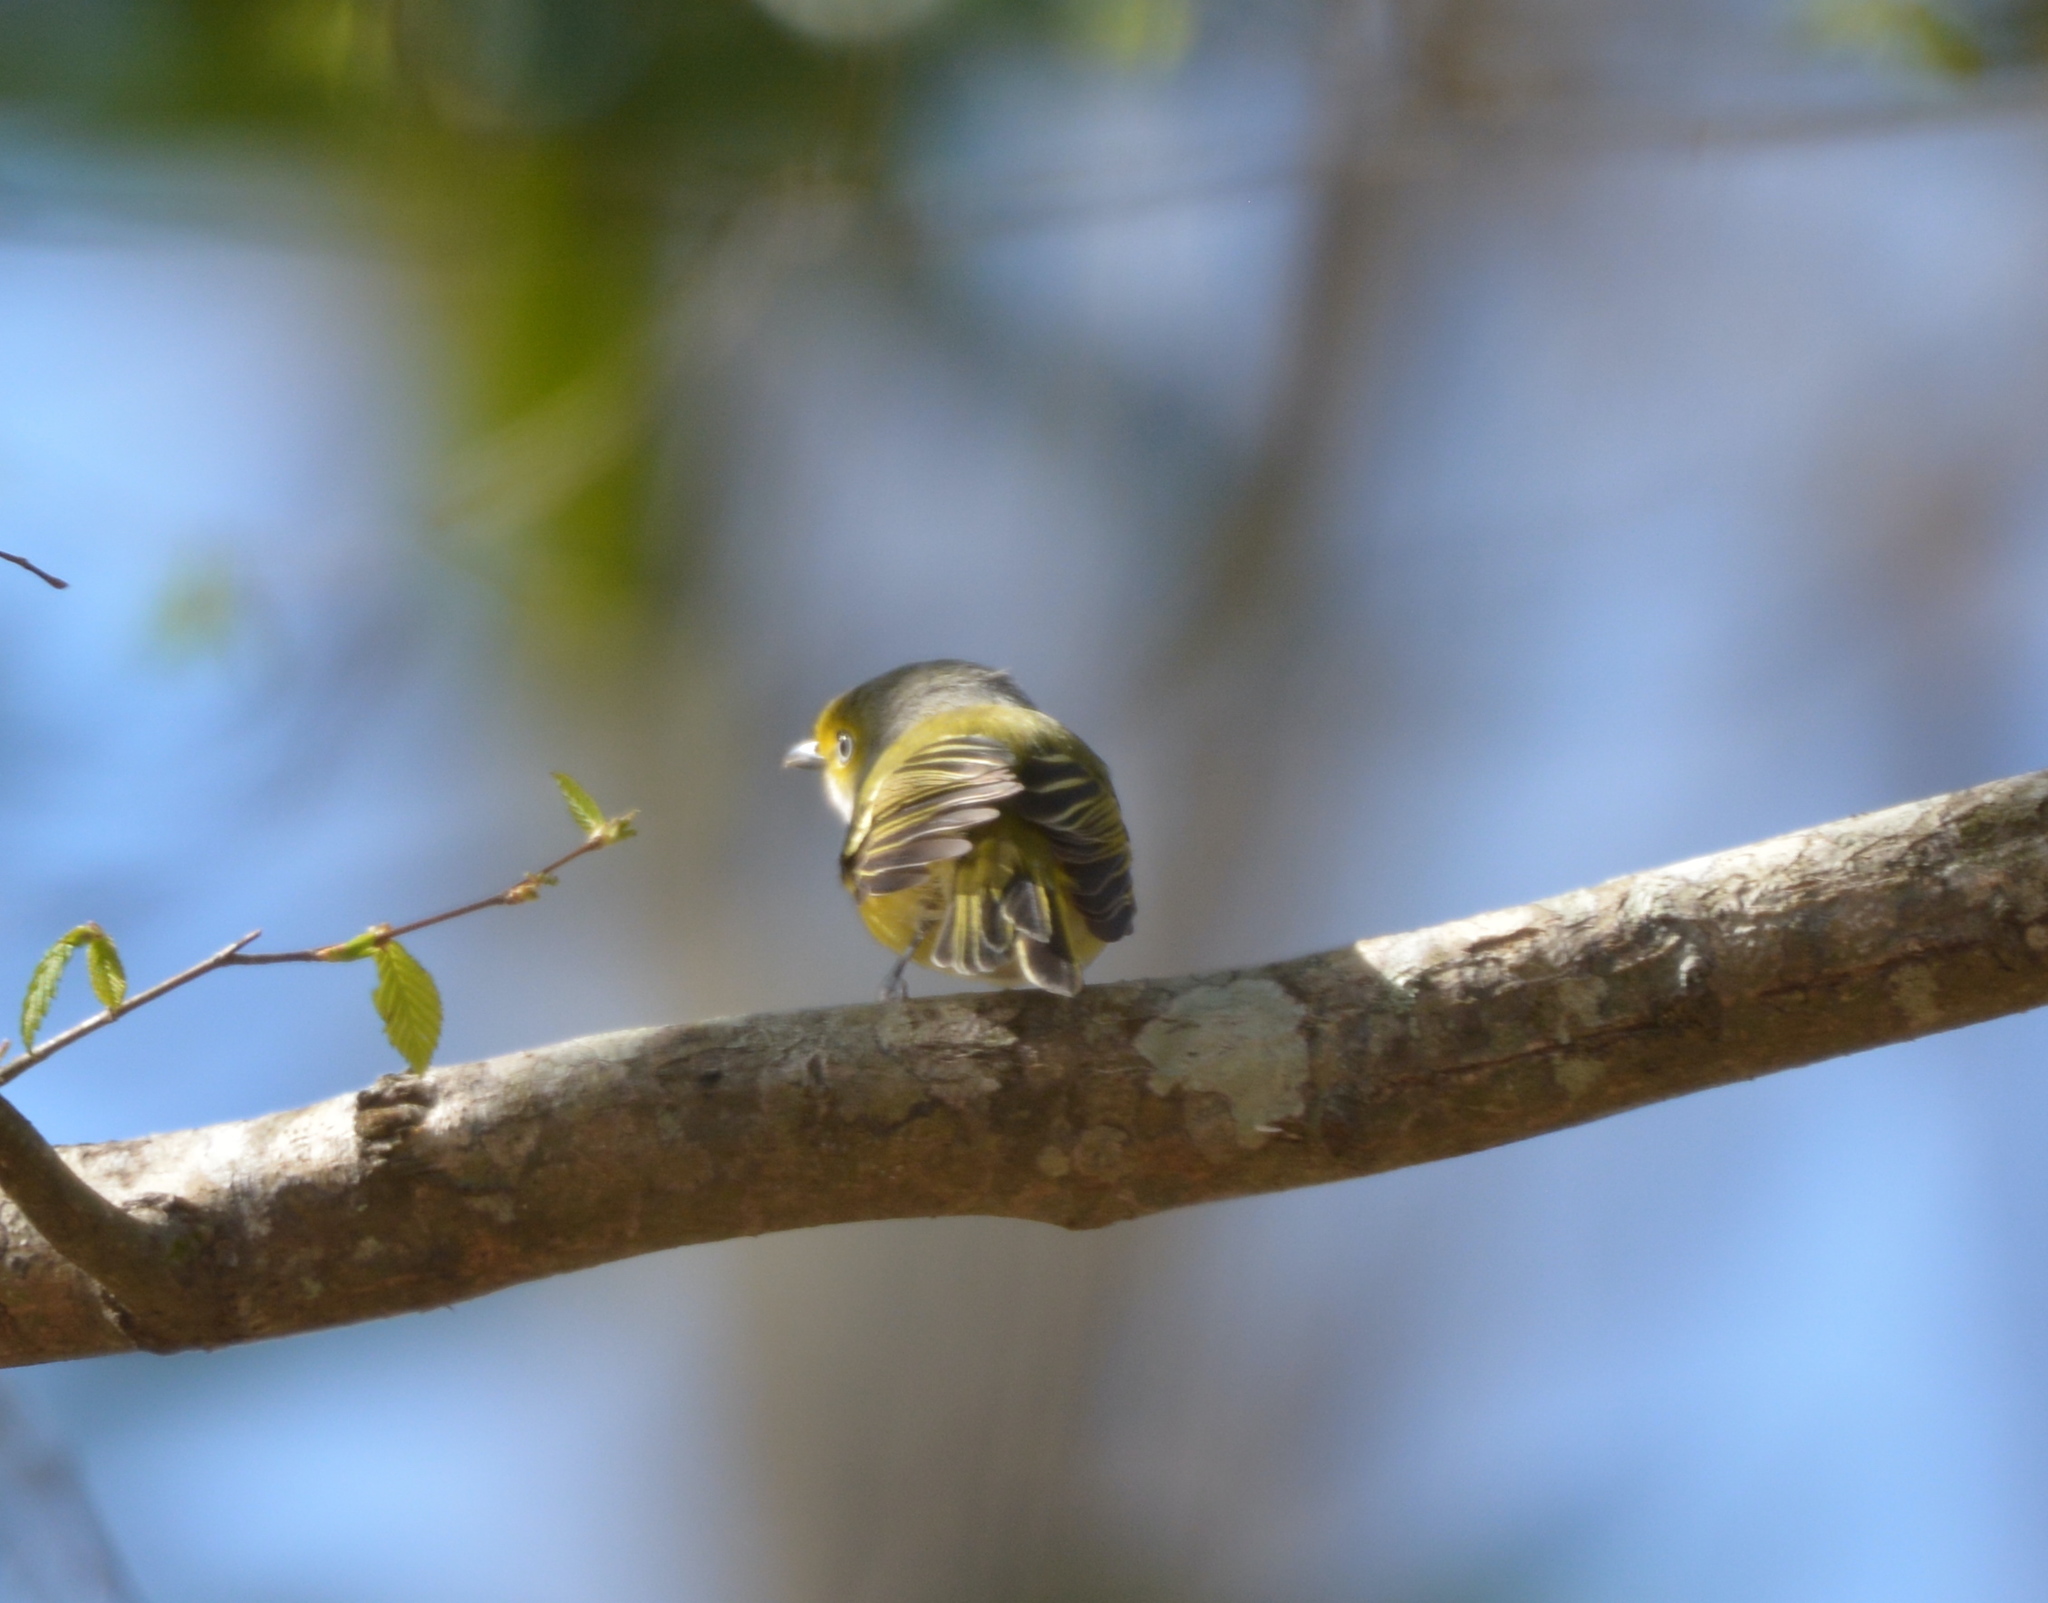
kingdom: Animalia
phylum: Chordata
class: Aves
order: Passeriformes
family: Vireonidae
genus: Vireo
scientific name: Vireo griseus
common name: White-eyed vireo
